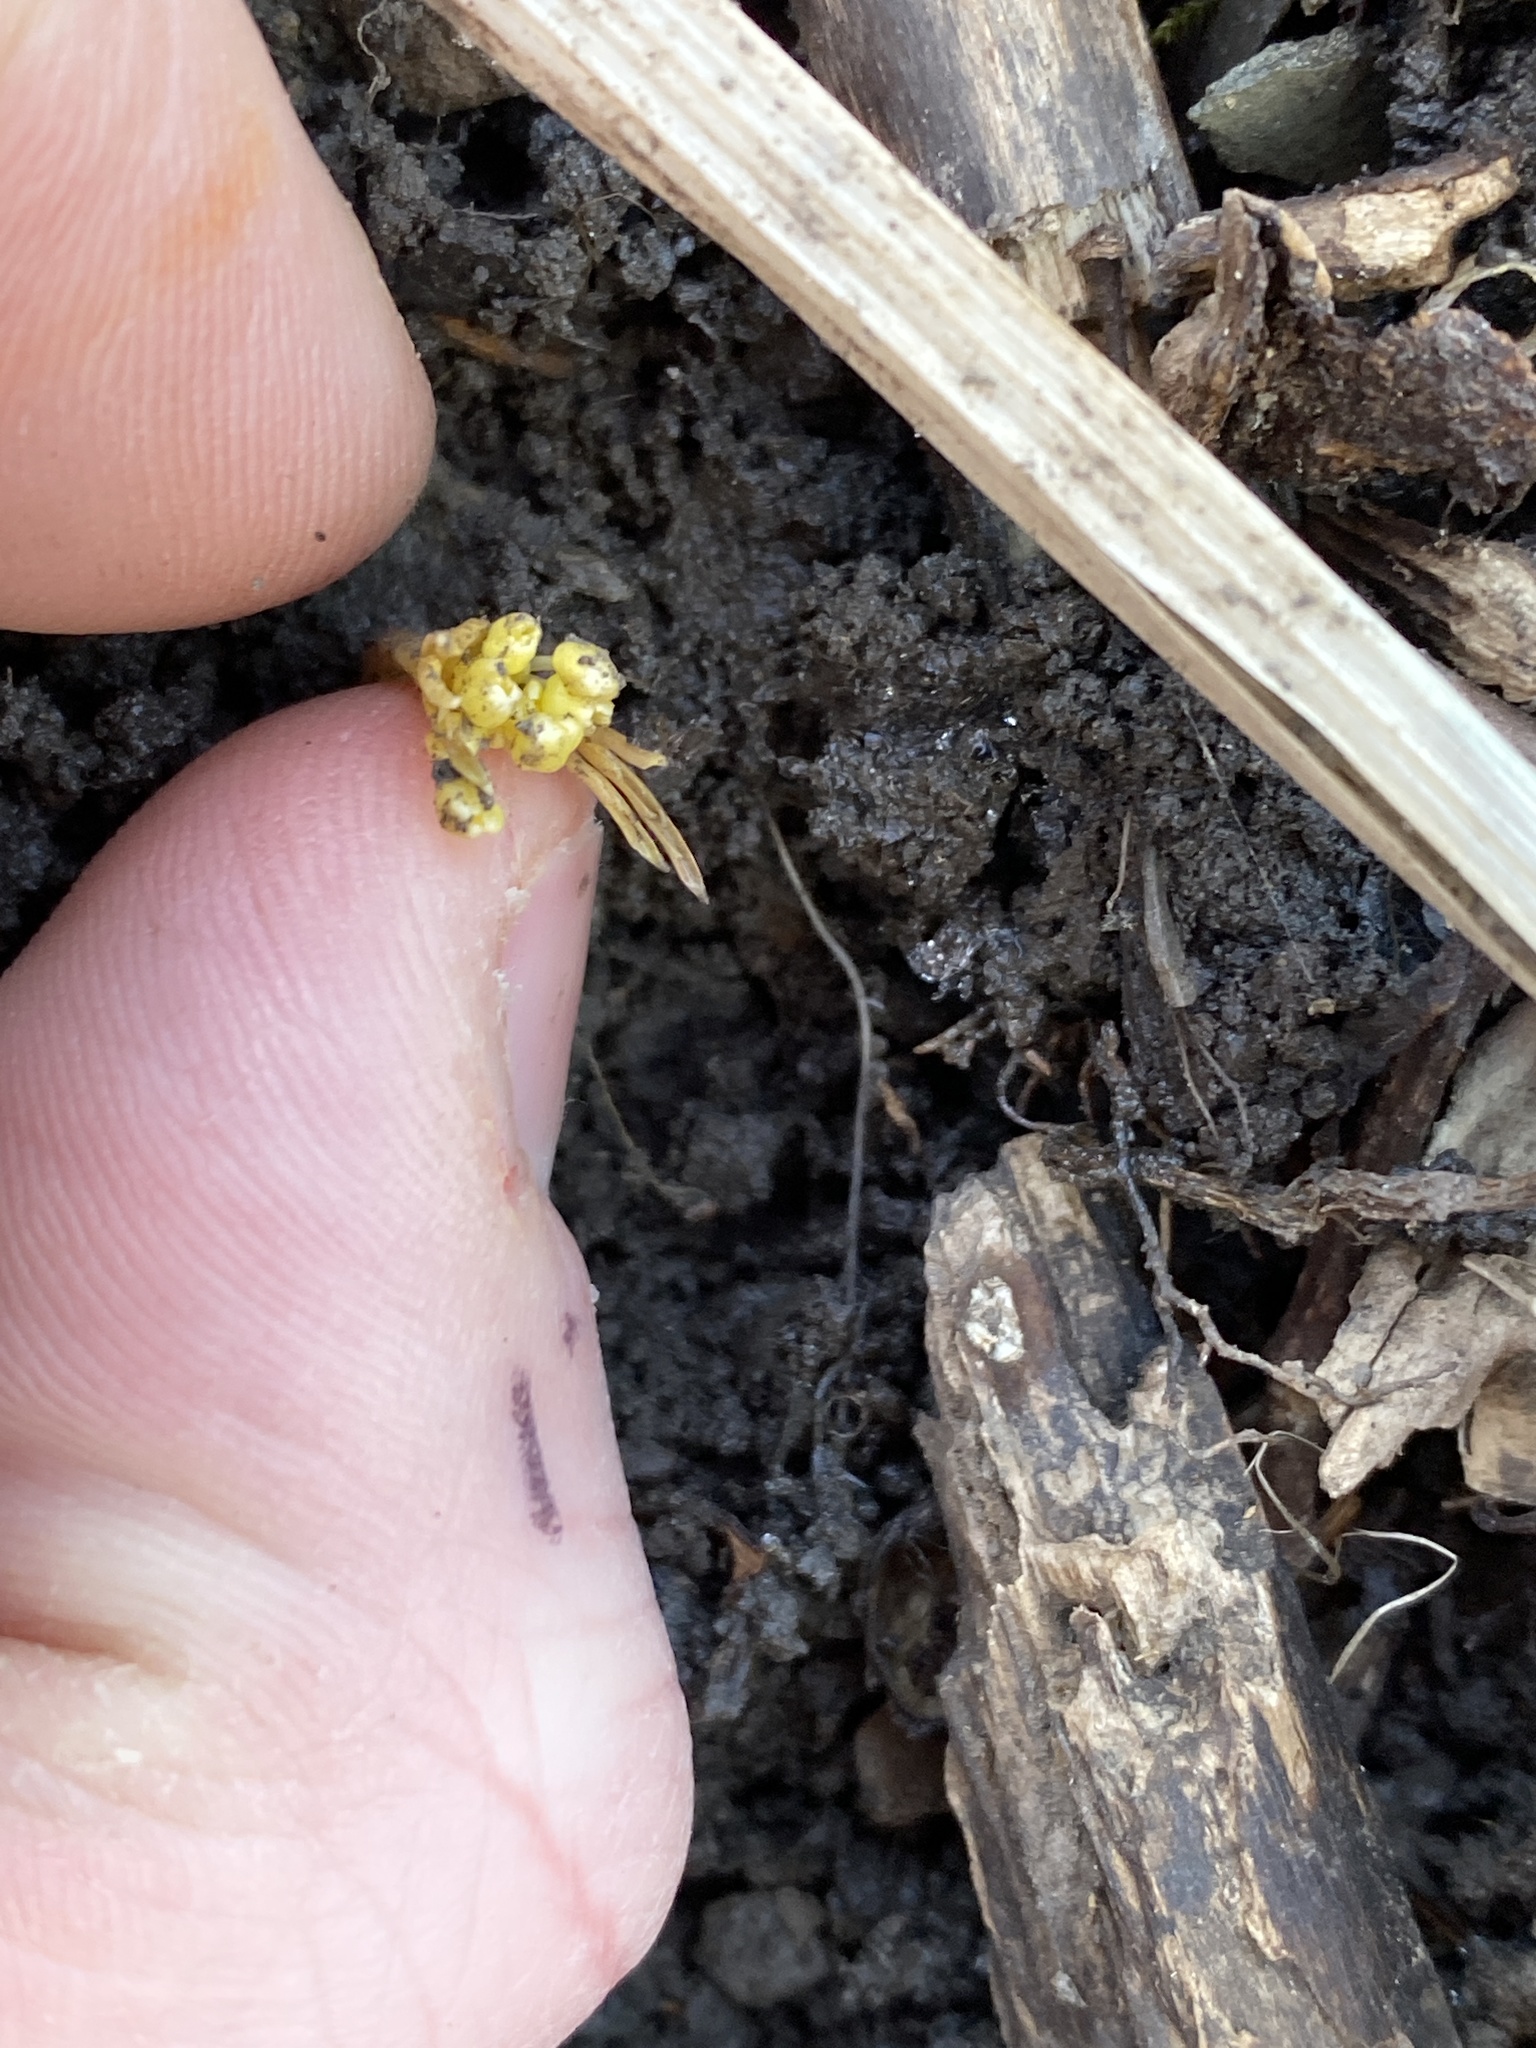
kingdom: Plantae
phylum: Tracheophyta
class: Magnoliopsida
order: Brassicales
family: Brassicaceae
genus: Cardamine
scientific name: Cardamine concatenata
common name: Cut-leaf toothcup
